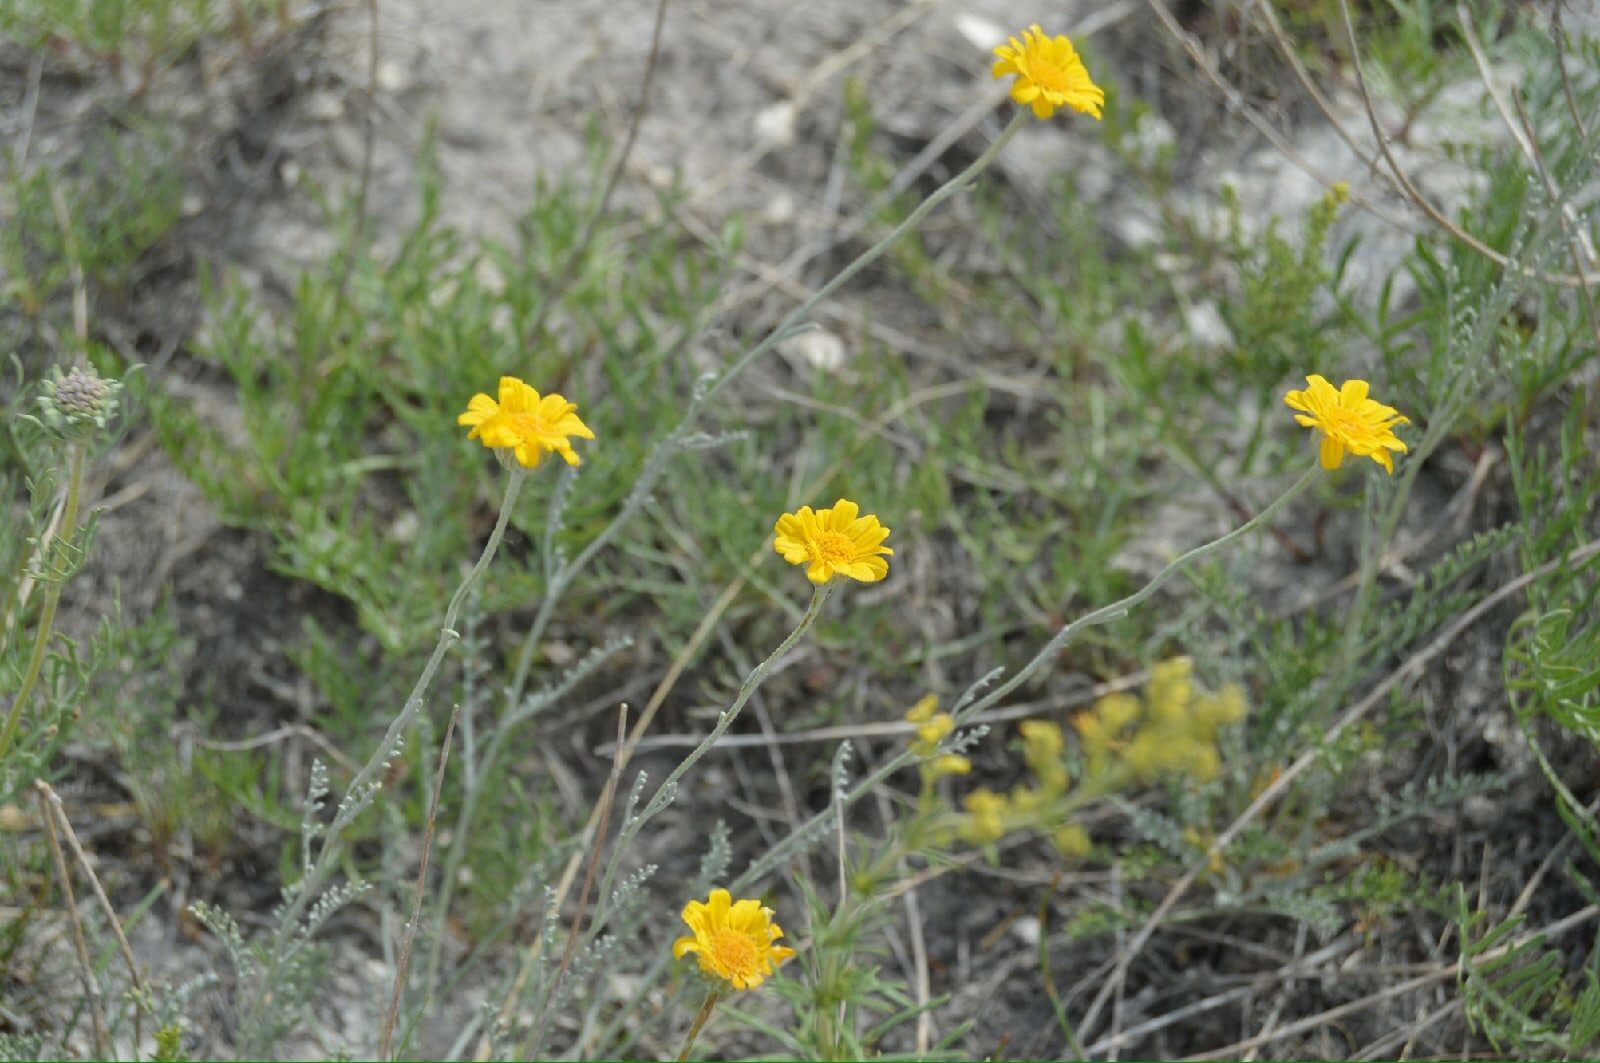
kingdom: Plantae
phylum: Tracheophyta
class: Magnoliopsida
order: Asterales
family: Asteraceae
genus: Archanthemis
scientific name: Archanthemis trotzkiana
